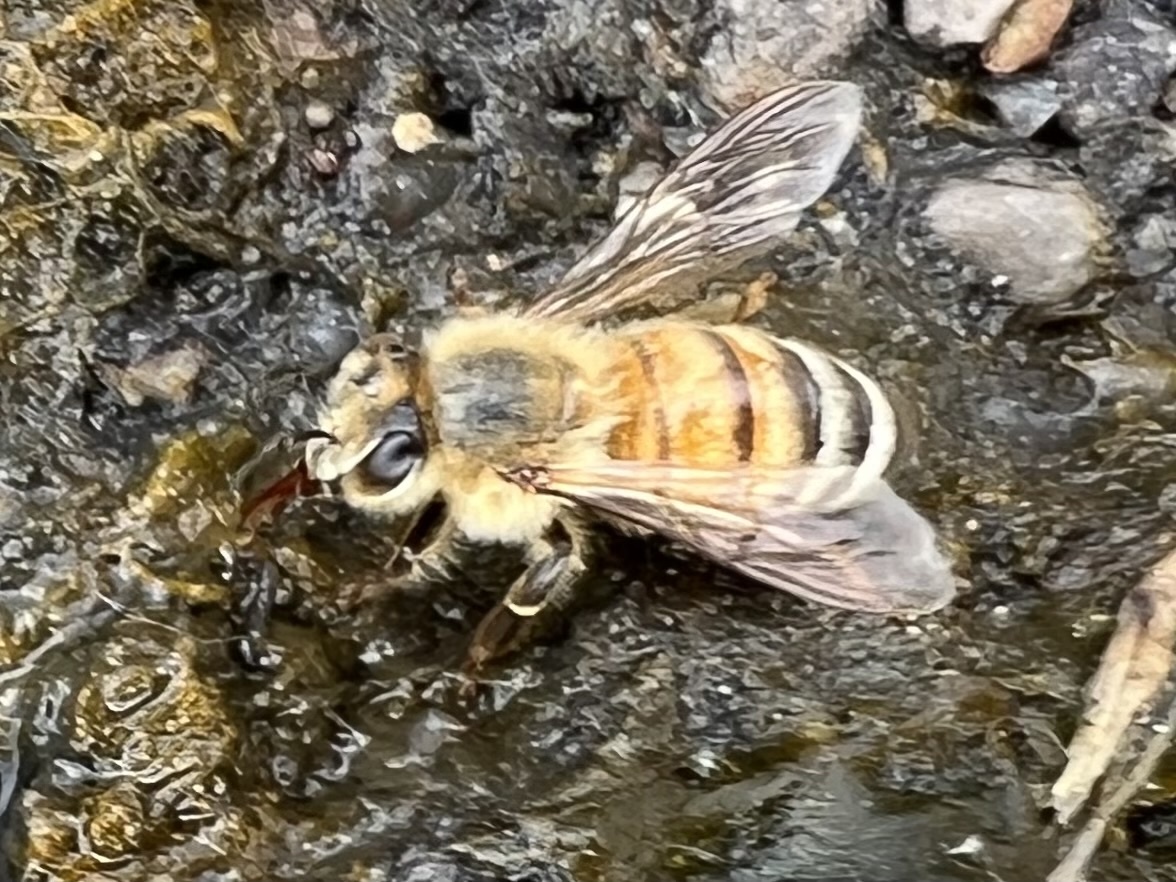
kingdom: Animalia
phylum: Arthropoda
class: Insecta
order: Hymenoptera
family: Apidae
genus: Apis
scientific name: Apis mellifera
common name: Honey bee
